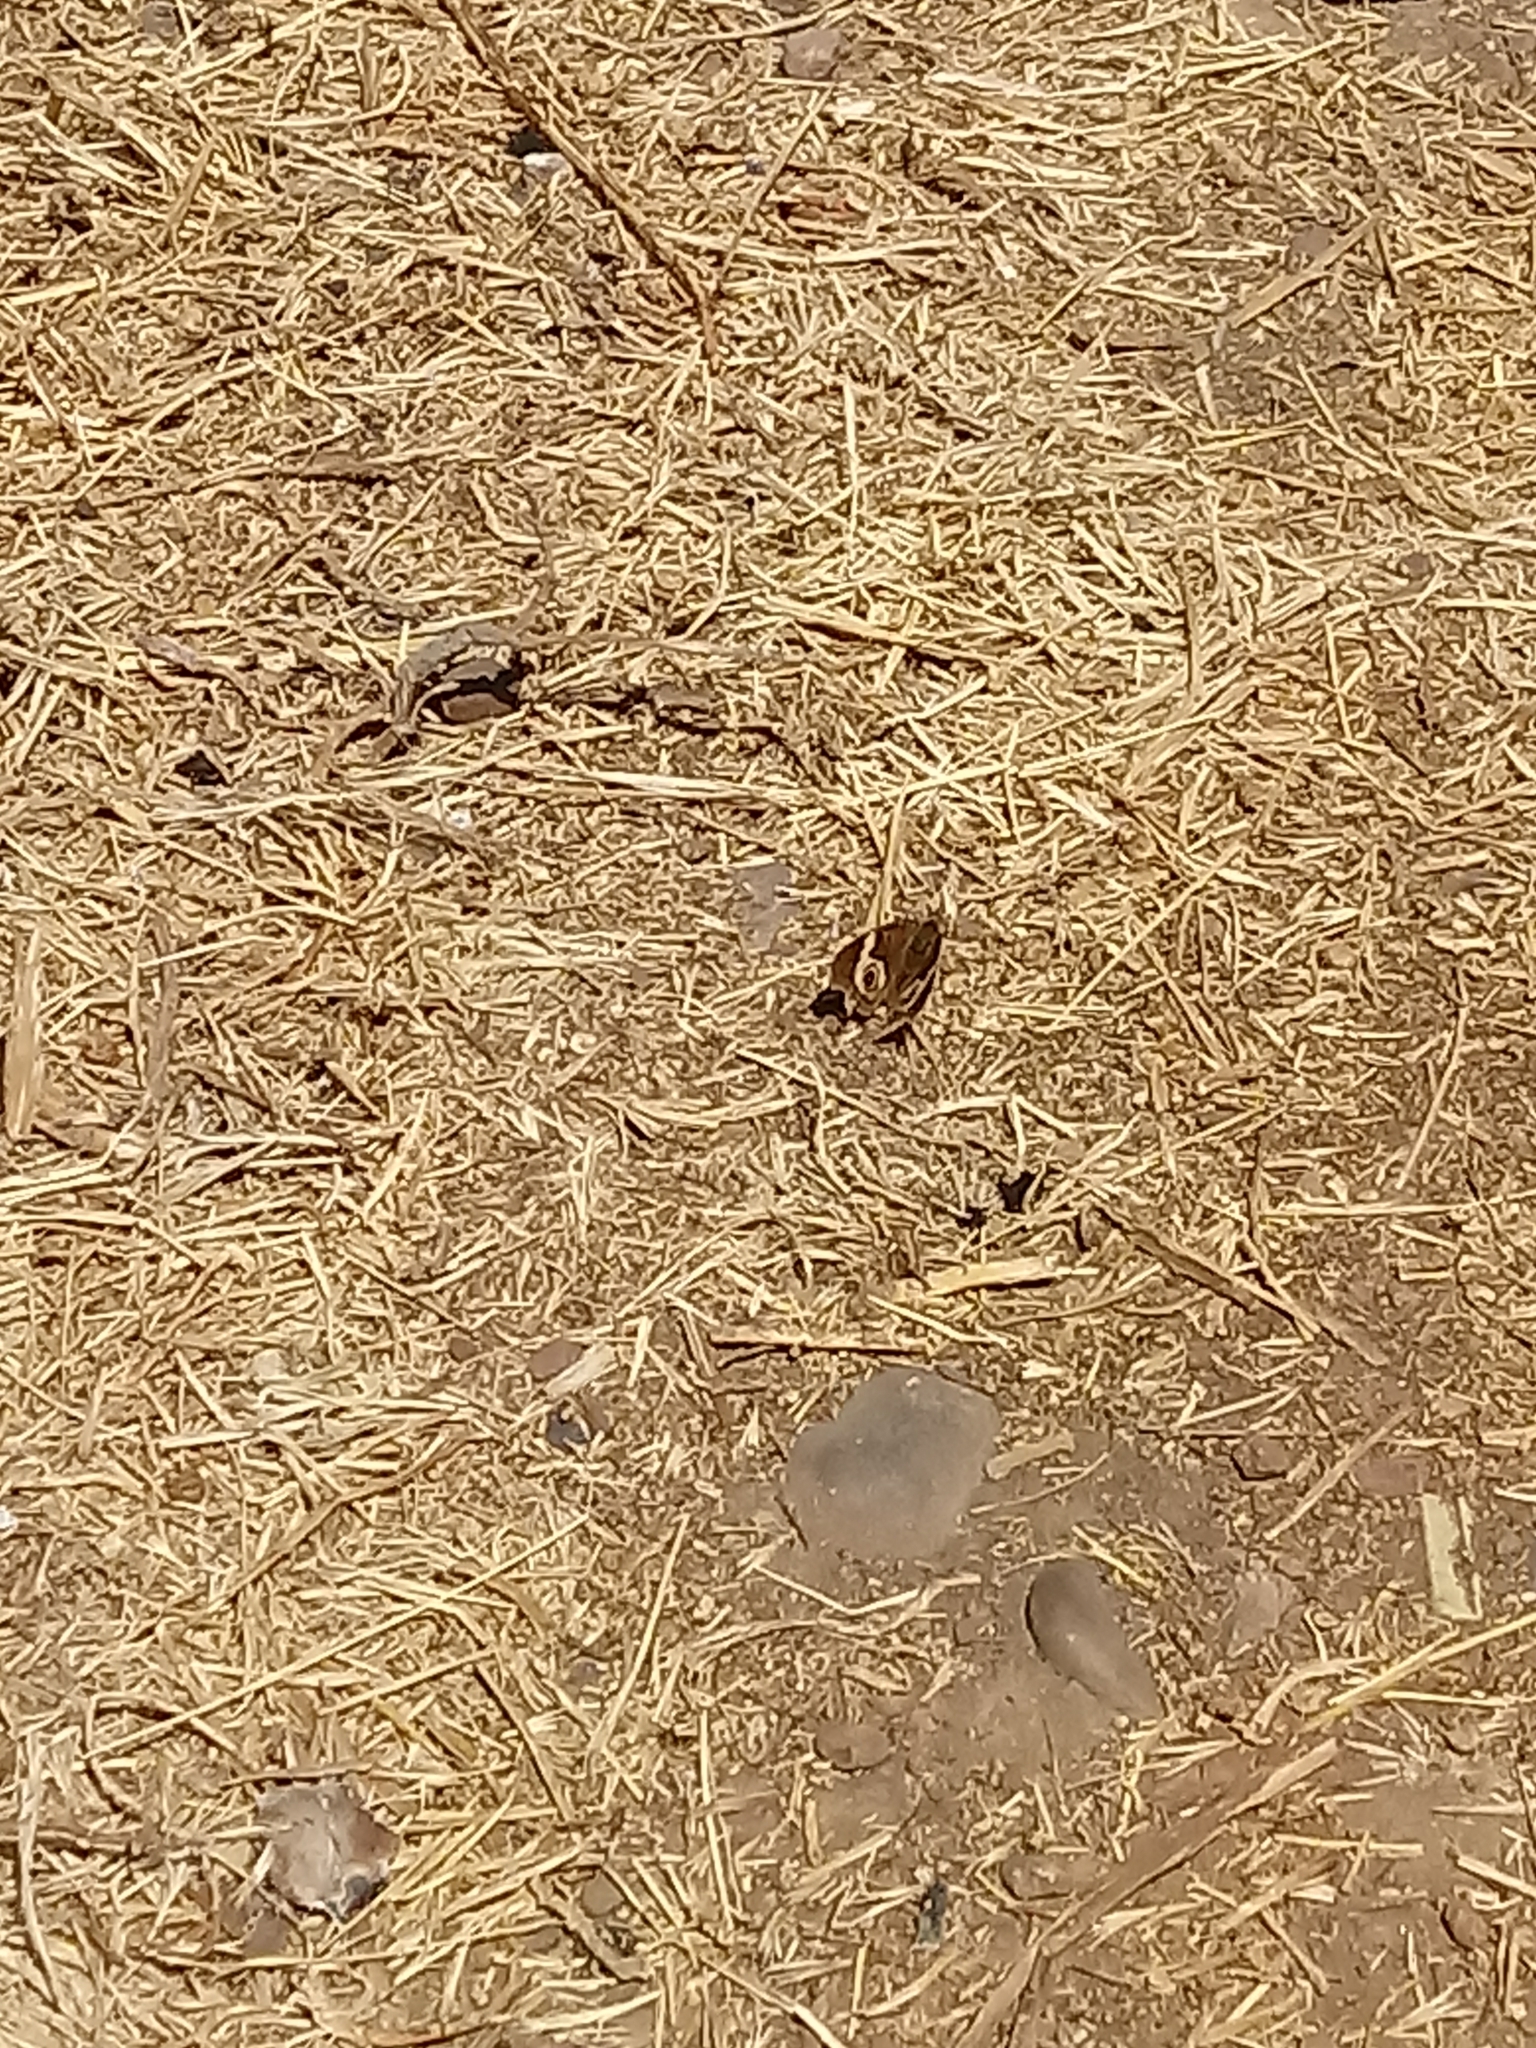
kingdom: Animalia
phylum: Arthropoda
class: Insecta
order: Lepidoptera
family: Nymphalidae
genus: Junonia
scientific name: Junonia grisea
